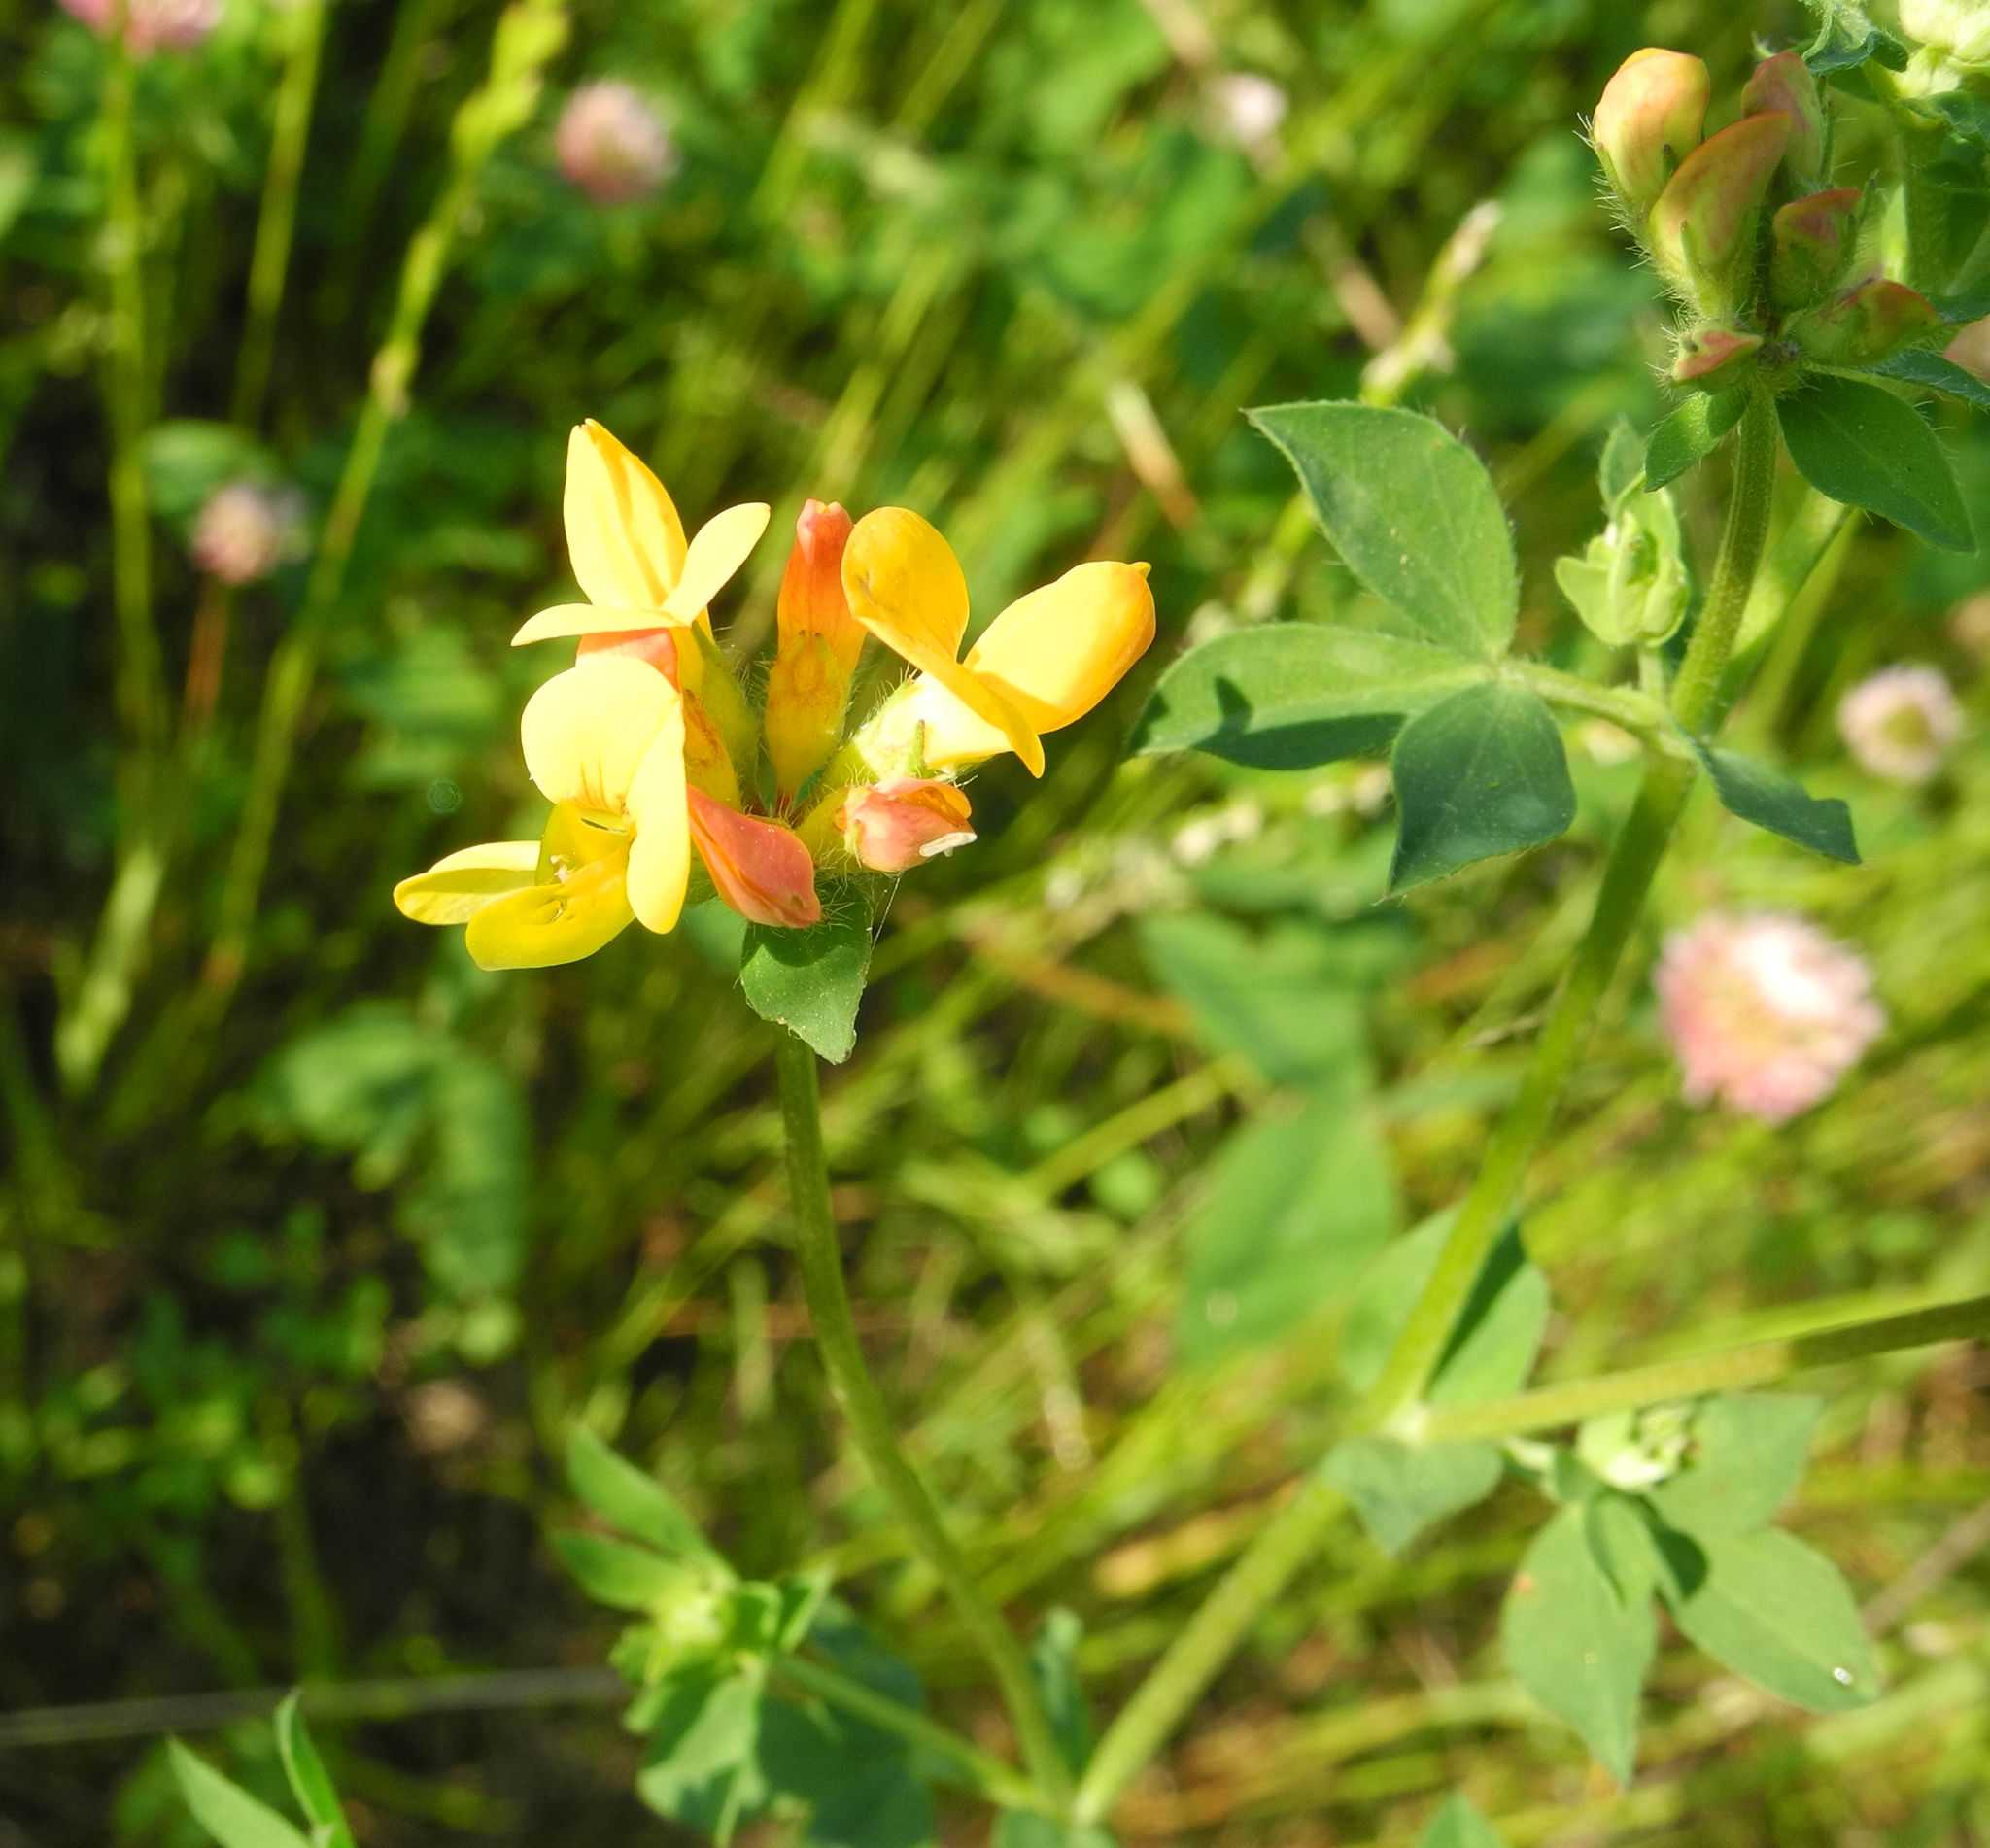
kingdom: Plantae
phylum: Tracheophyta
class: Magnoliopsida
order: Fabales
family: Fabaceae
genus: Lotus
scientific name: Lotus corniculatus
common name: Common bird's-foot-trefoil
